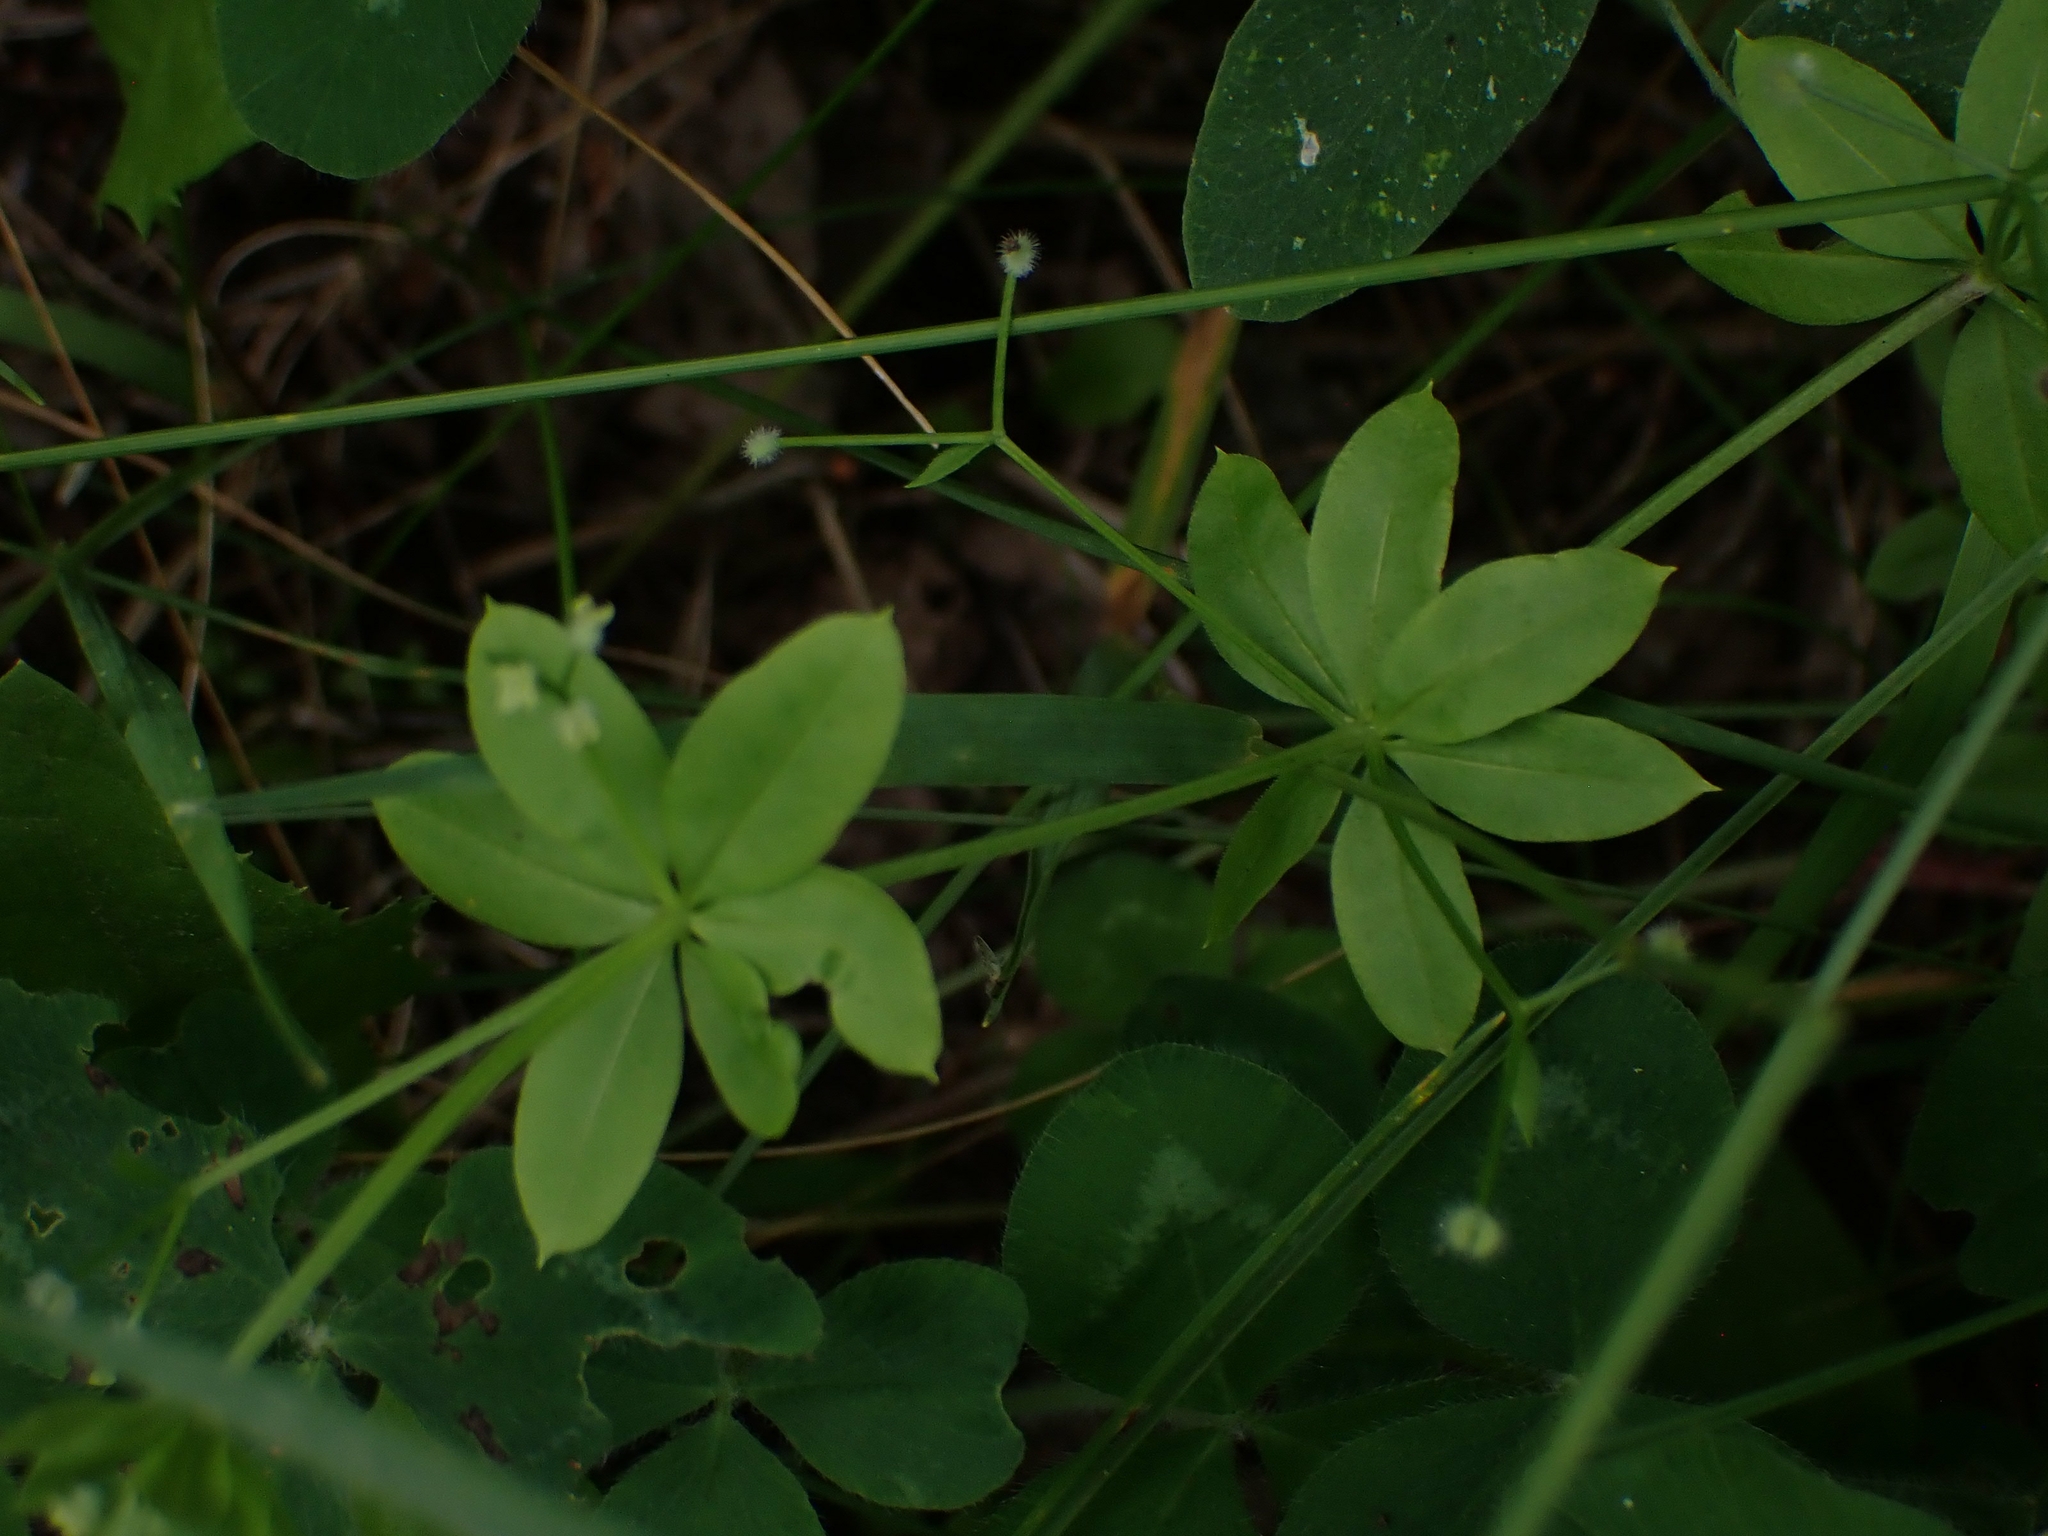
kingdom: Plantae
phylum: Tracheophyta
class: Magnoliopsida
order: Gentianales
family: Rubiaceae
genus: Galium
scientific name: Galium triflorum
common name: Fragrant bedstraw
